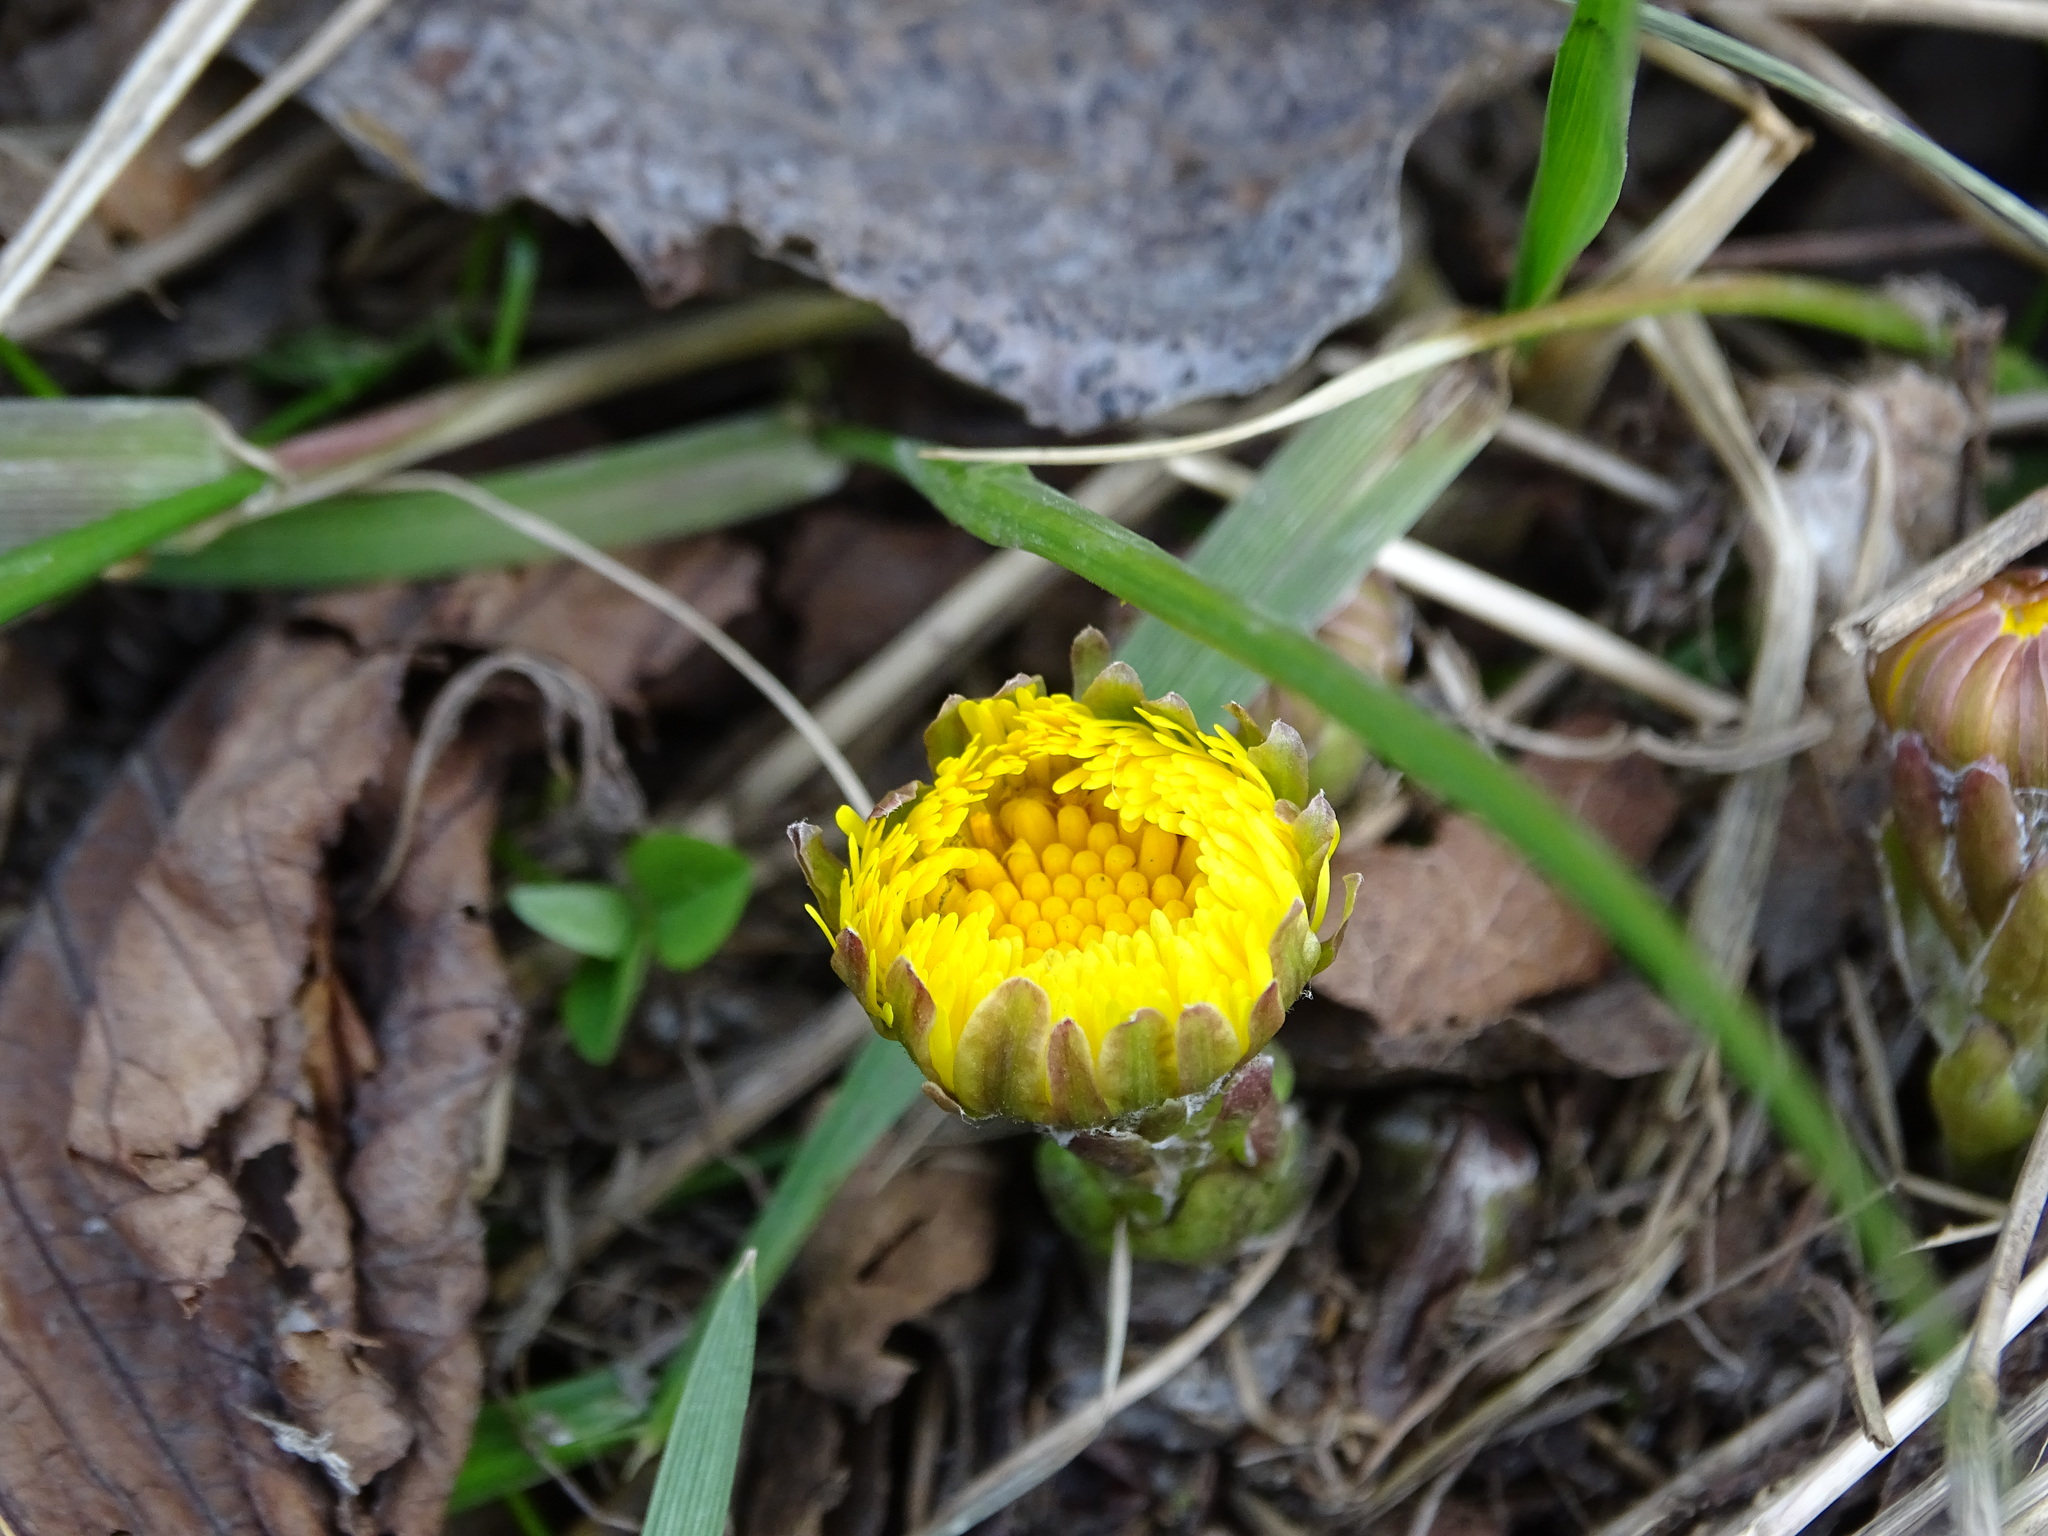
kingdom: Plantae
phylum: Tracheophyta
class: Magnoliopsida
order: Asterales
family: Asteraceae
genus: Tussilago
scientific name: Tussilago farfara
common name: Coltsfoot
